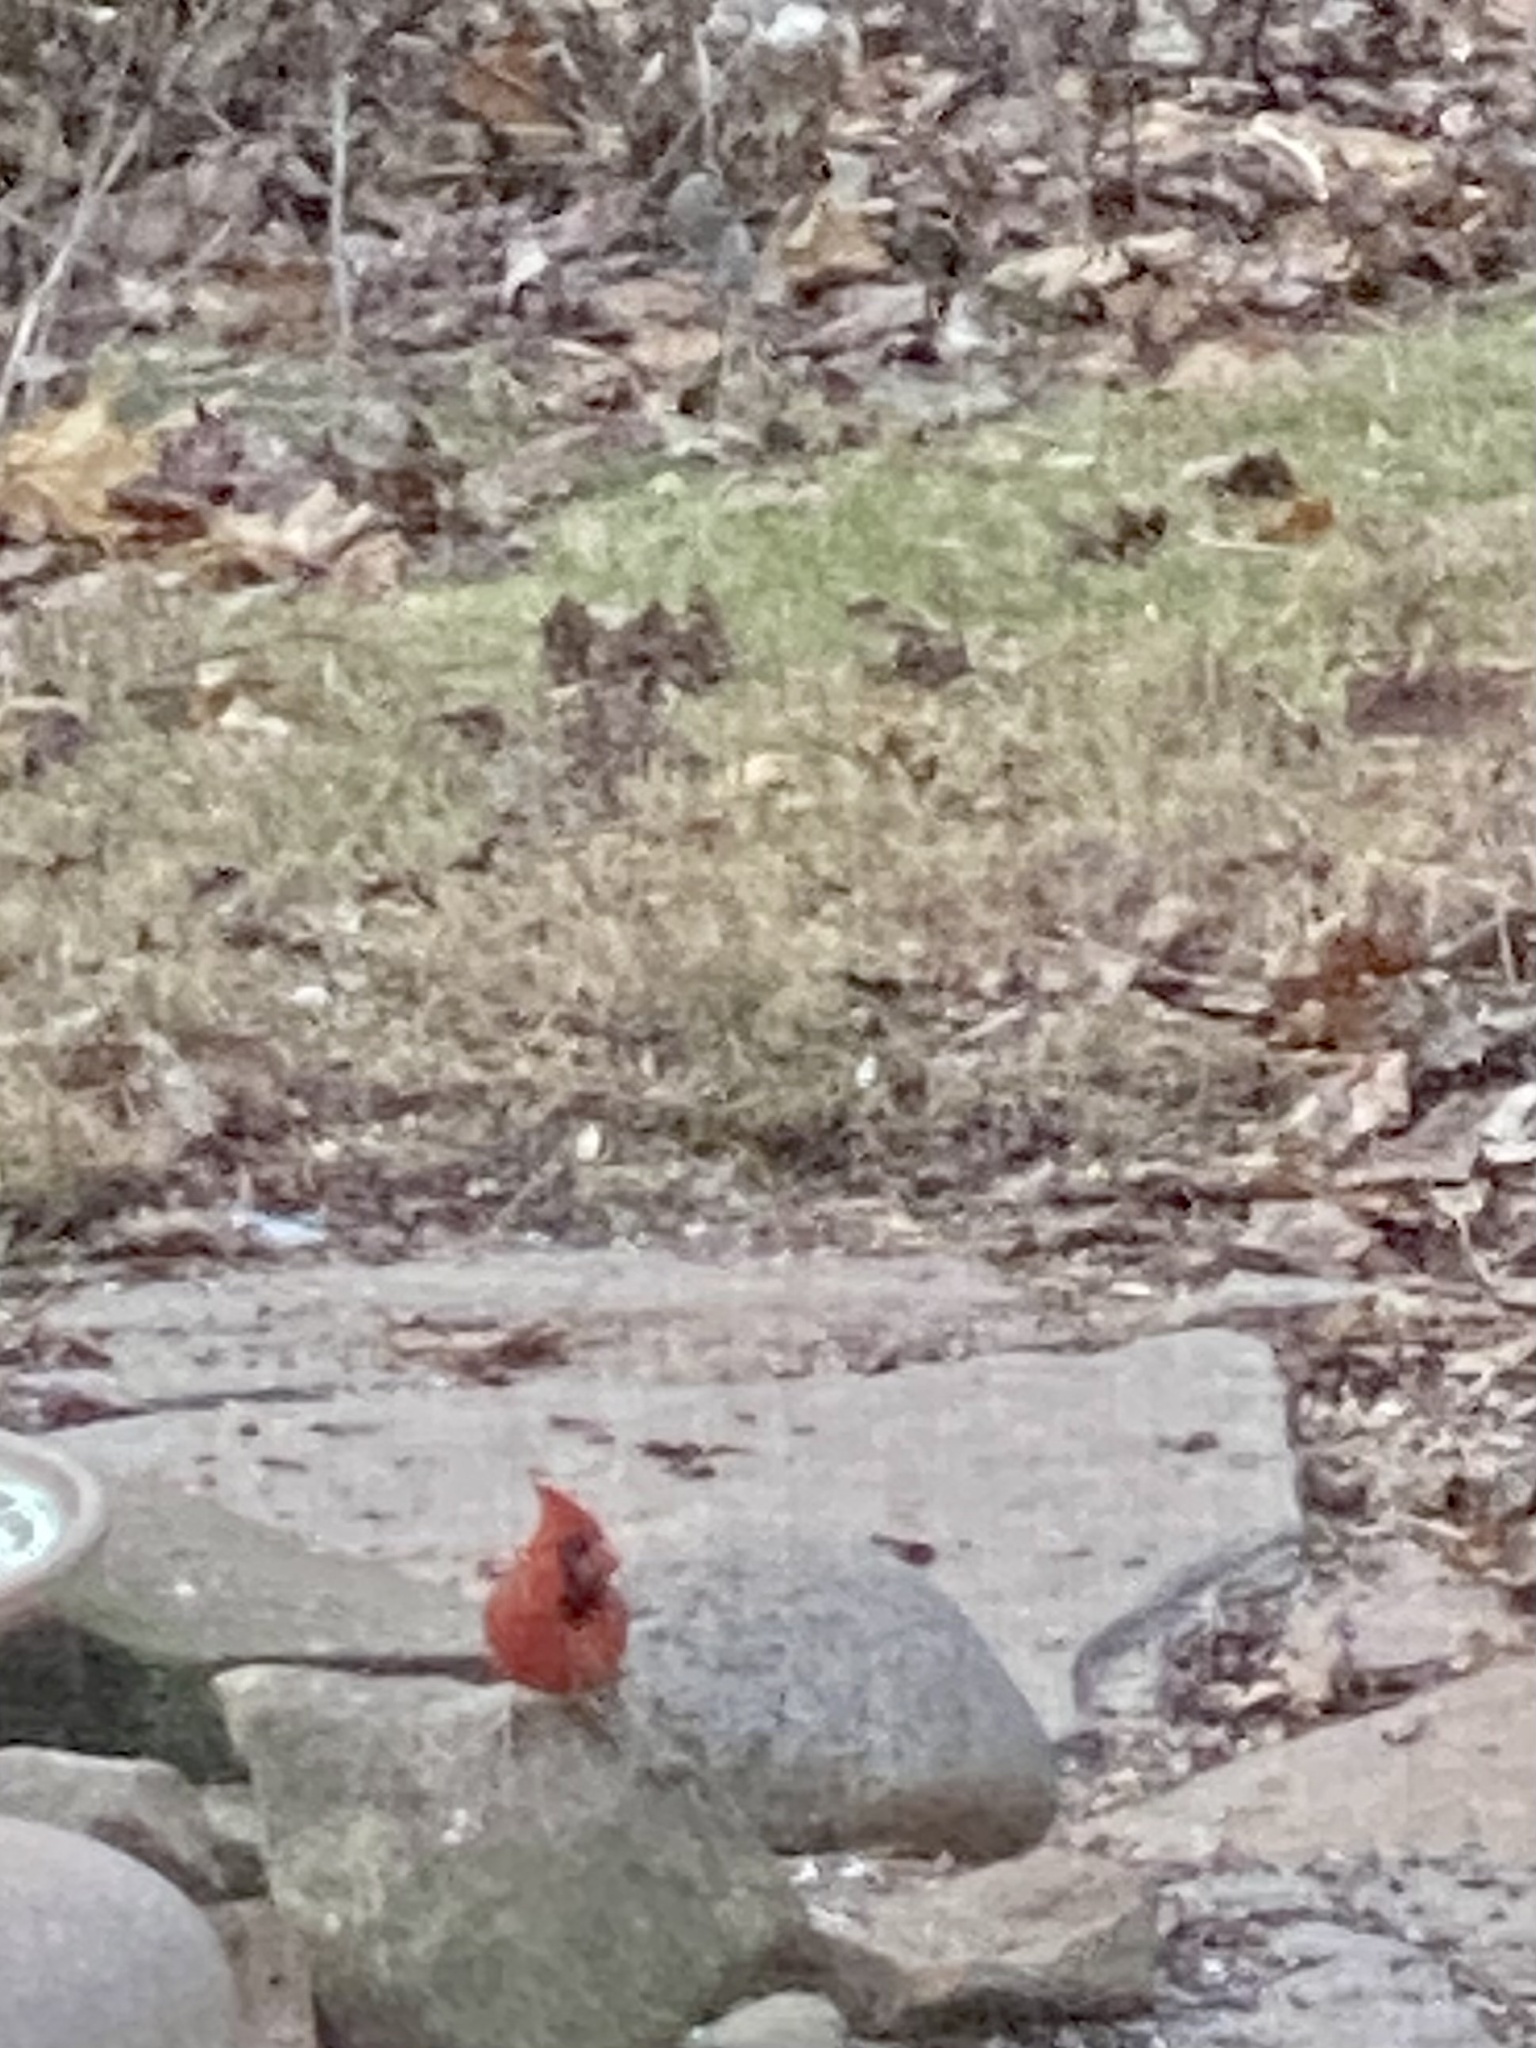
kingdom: Animalia
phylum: Chordata
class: Aves
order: Passeriformes
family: Cardinalidae
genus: Cardinalis
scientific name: Cardinalis cardinalis
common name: Northern cardinal
